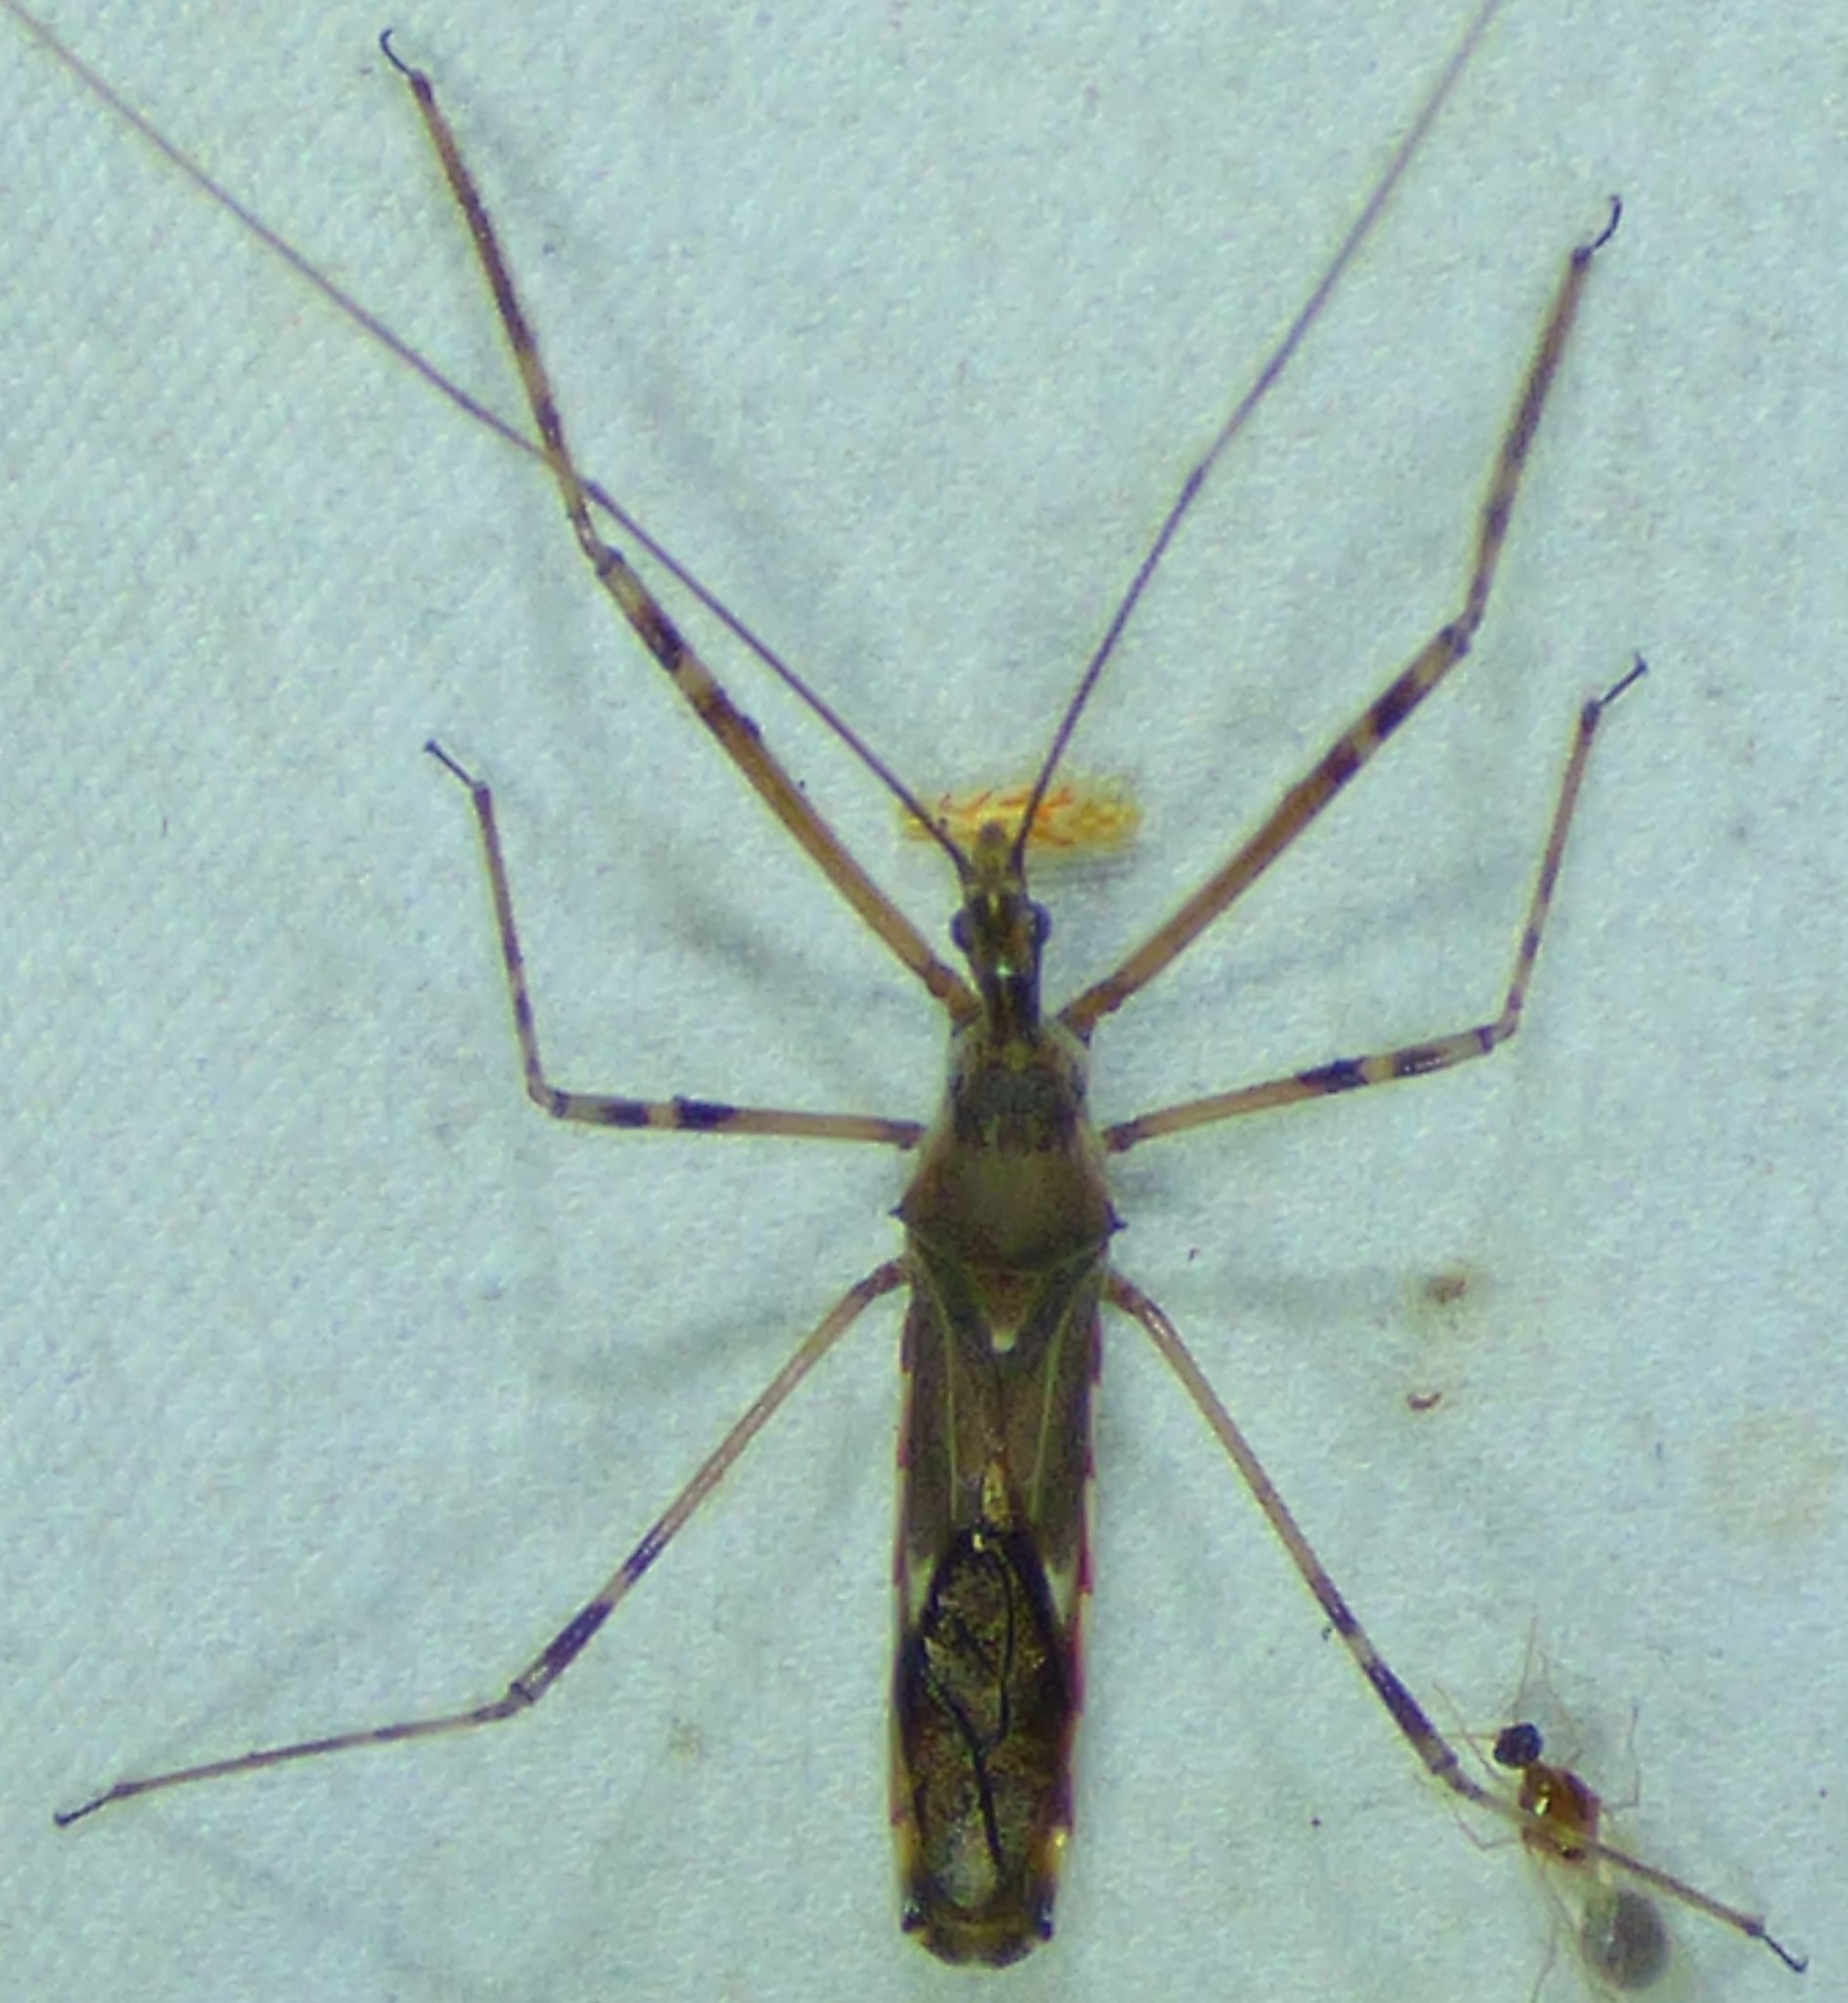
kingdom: Animalia
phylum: Arthropoda
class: Insecta
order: Hemiptera
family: Reduviidae
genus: Zelus
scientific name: Zelus tetracanthus
